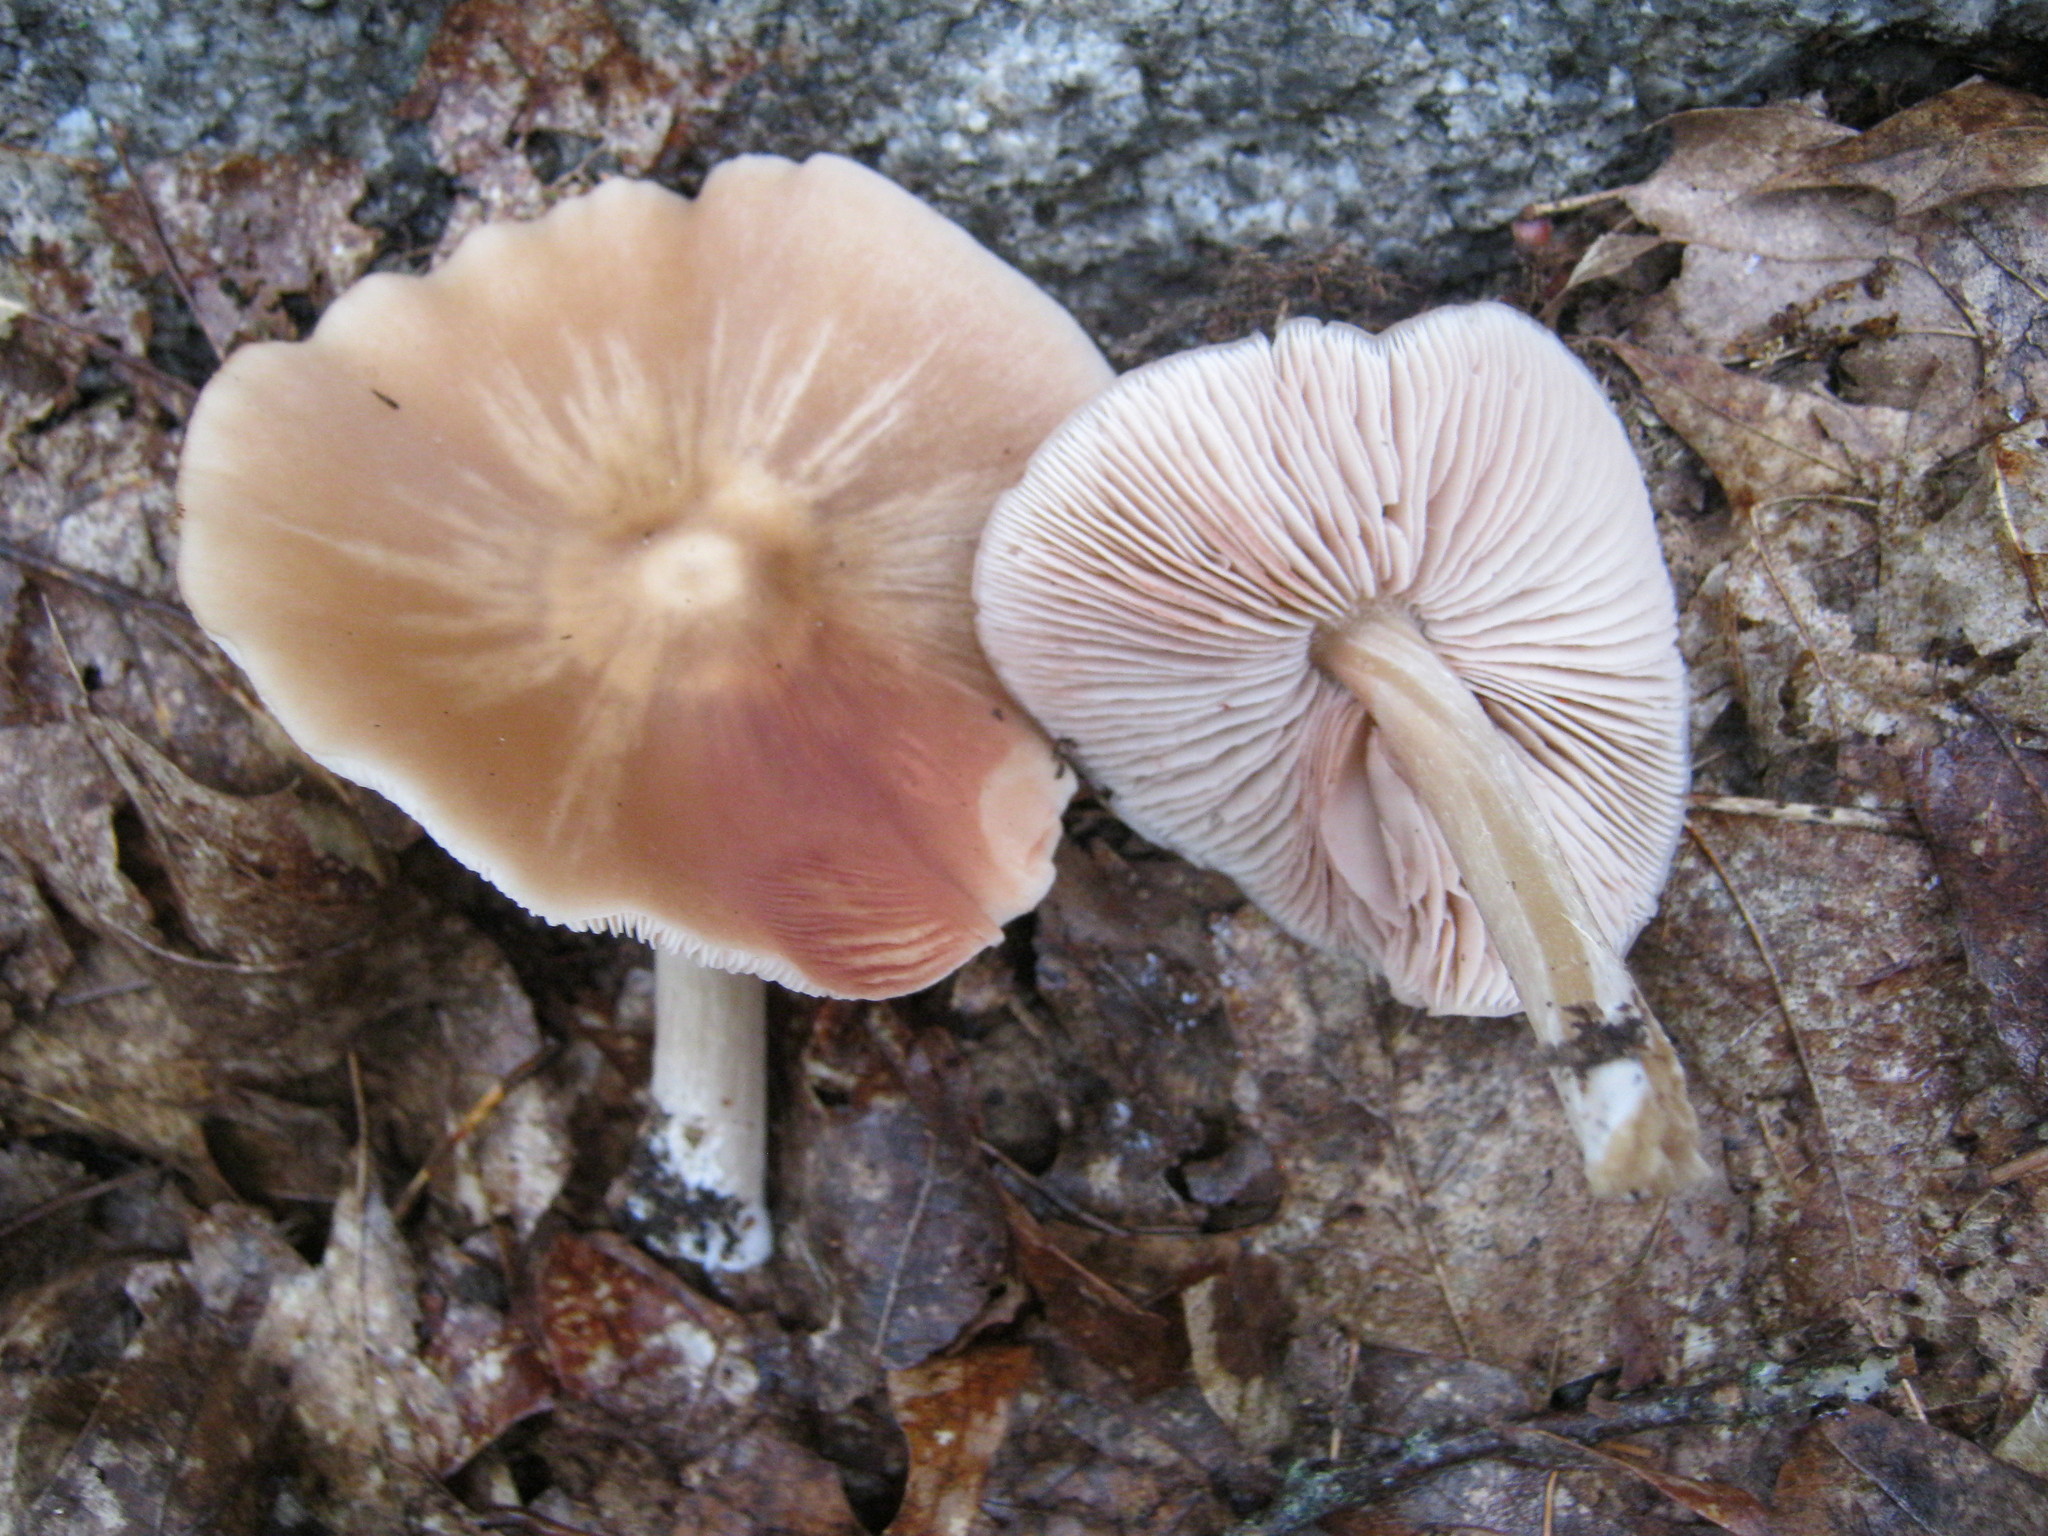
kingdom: Fungi
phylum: Basidiomycota
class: Agaricomycetes
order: Agaricales
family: Entolomataceae
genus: Entoloma
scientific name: Entoloma strictius
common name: Straight-stalked entoloma
